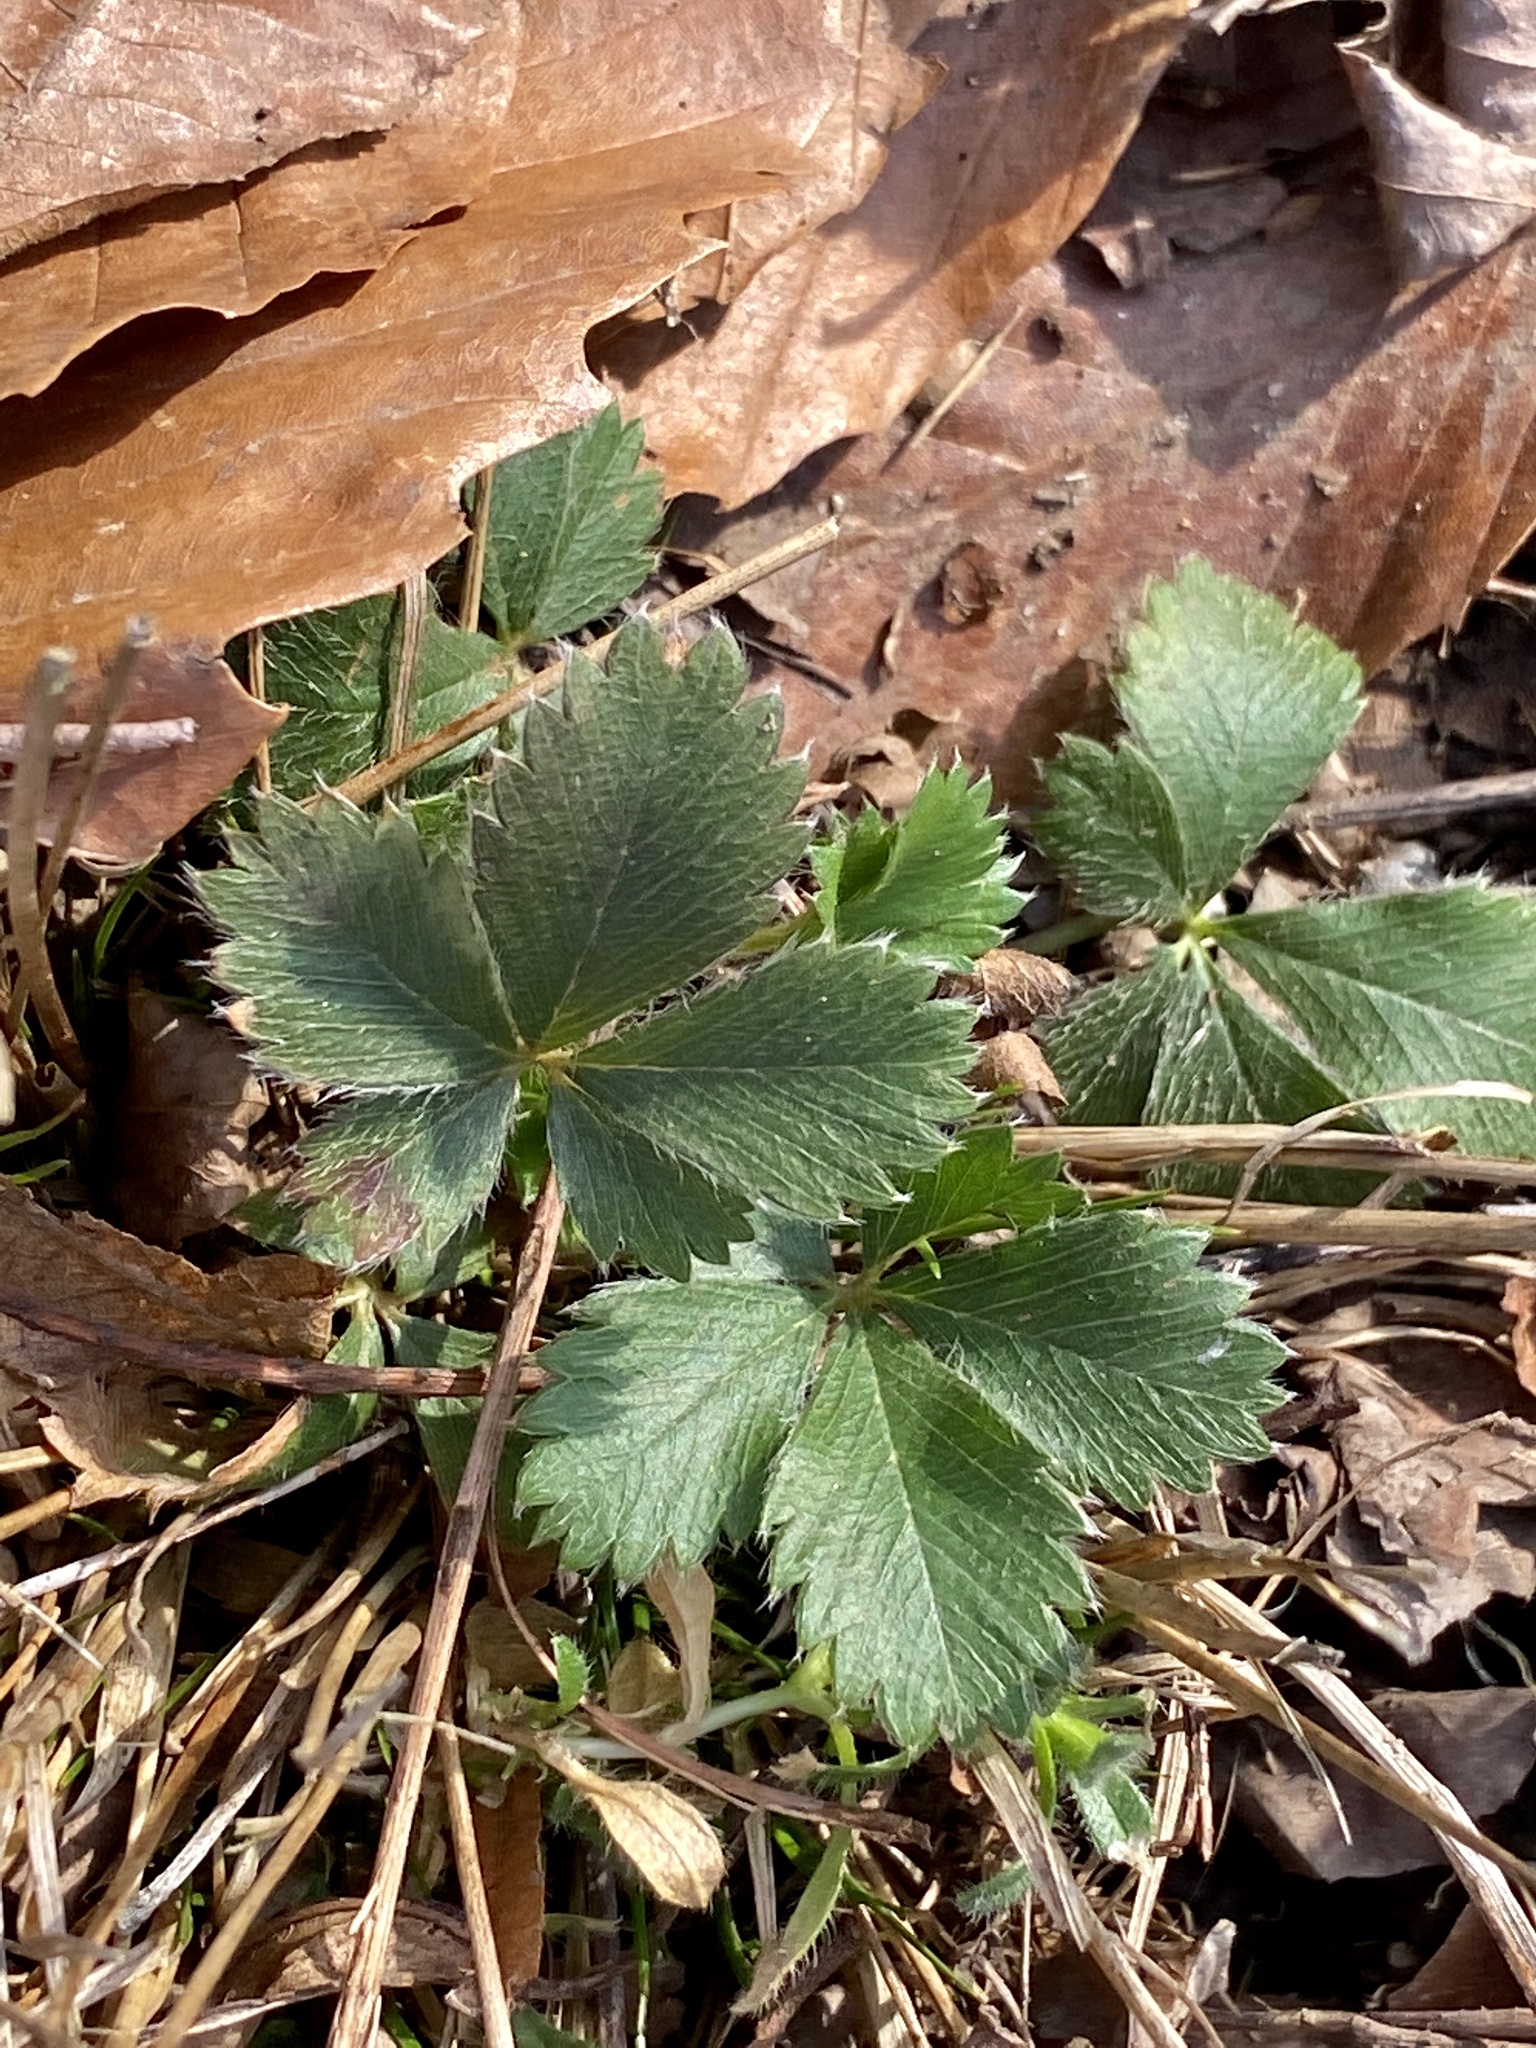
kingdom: Plantae
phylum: Tracheophyta
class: Magnoliopsida
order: Rosales
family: Rosaceae
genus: Potentilla
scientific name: Potentilla canadensis
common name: Canada cinquefoil
